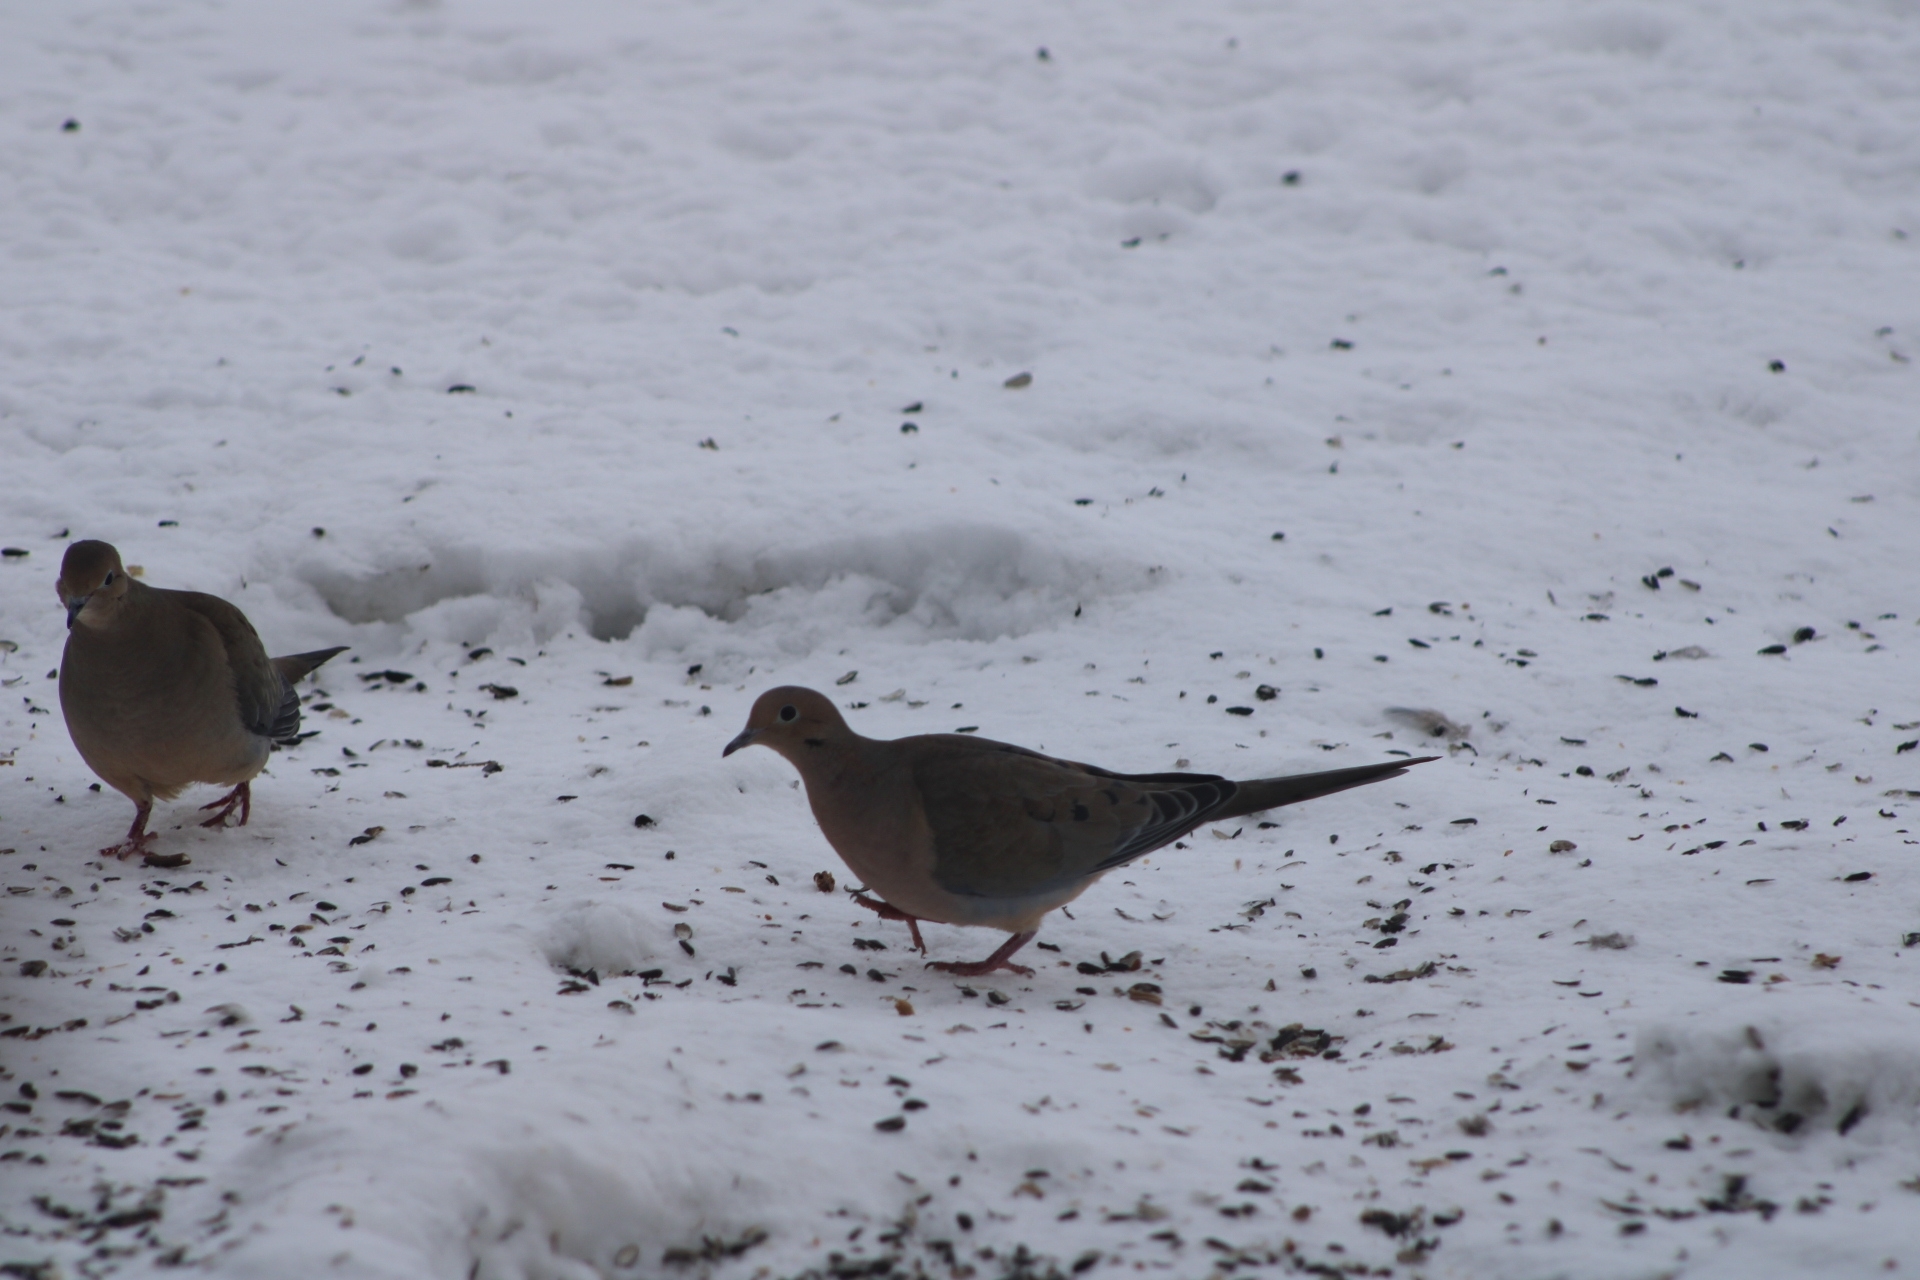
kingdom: Animalia
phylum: Chordata
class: Aves
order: Columbiformes
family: Columbidae
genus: Zenaida
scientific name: Zenaida macroura
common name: Mourning dove
